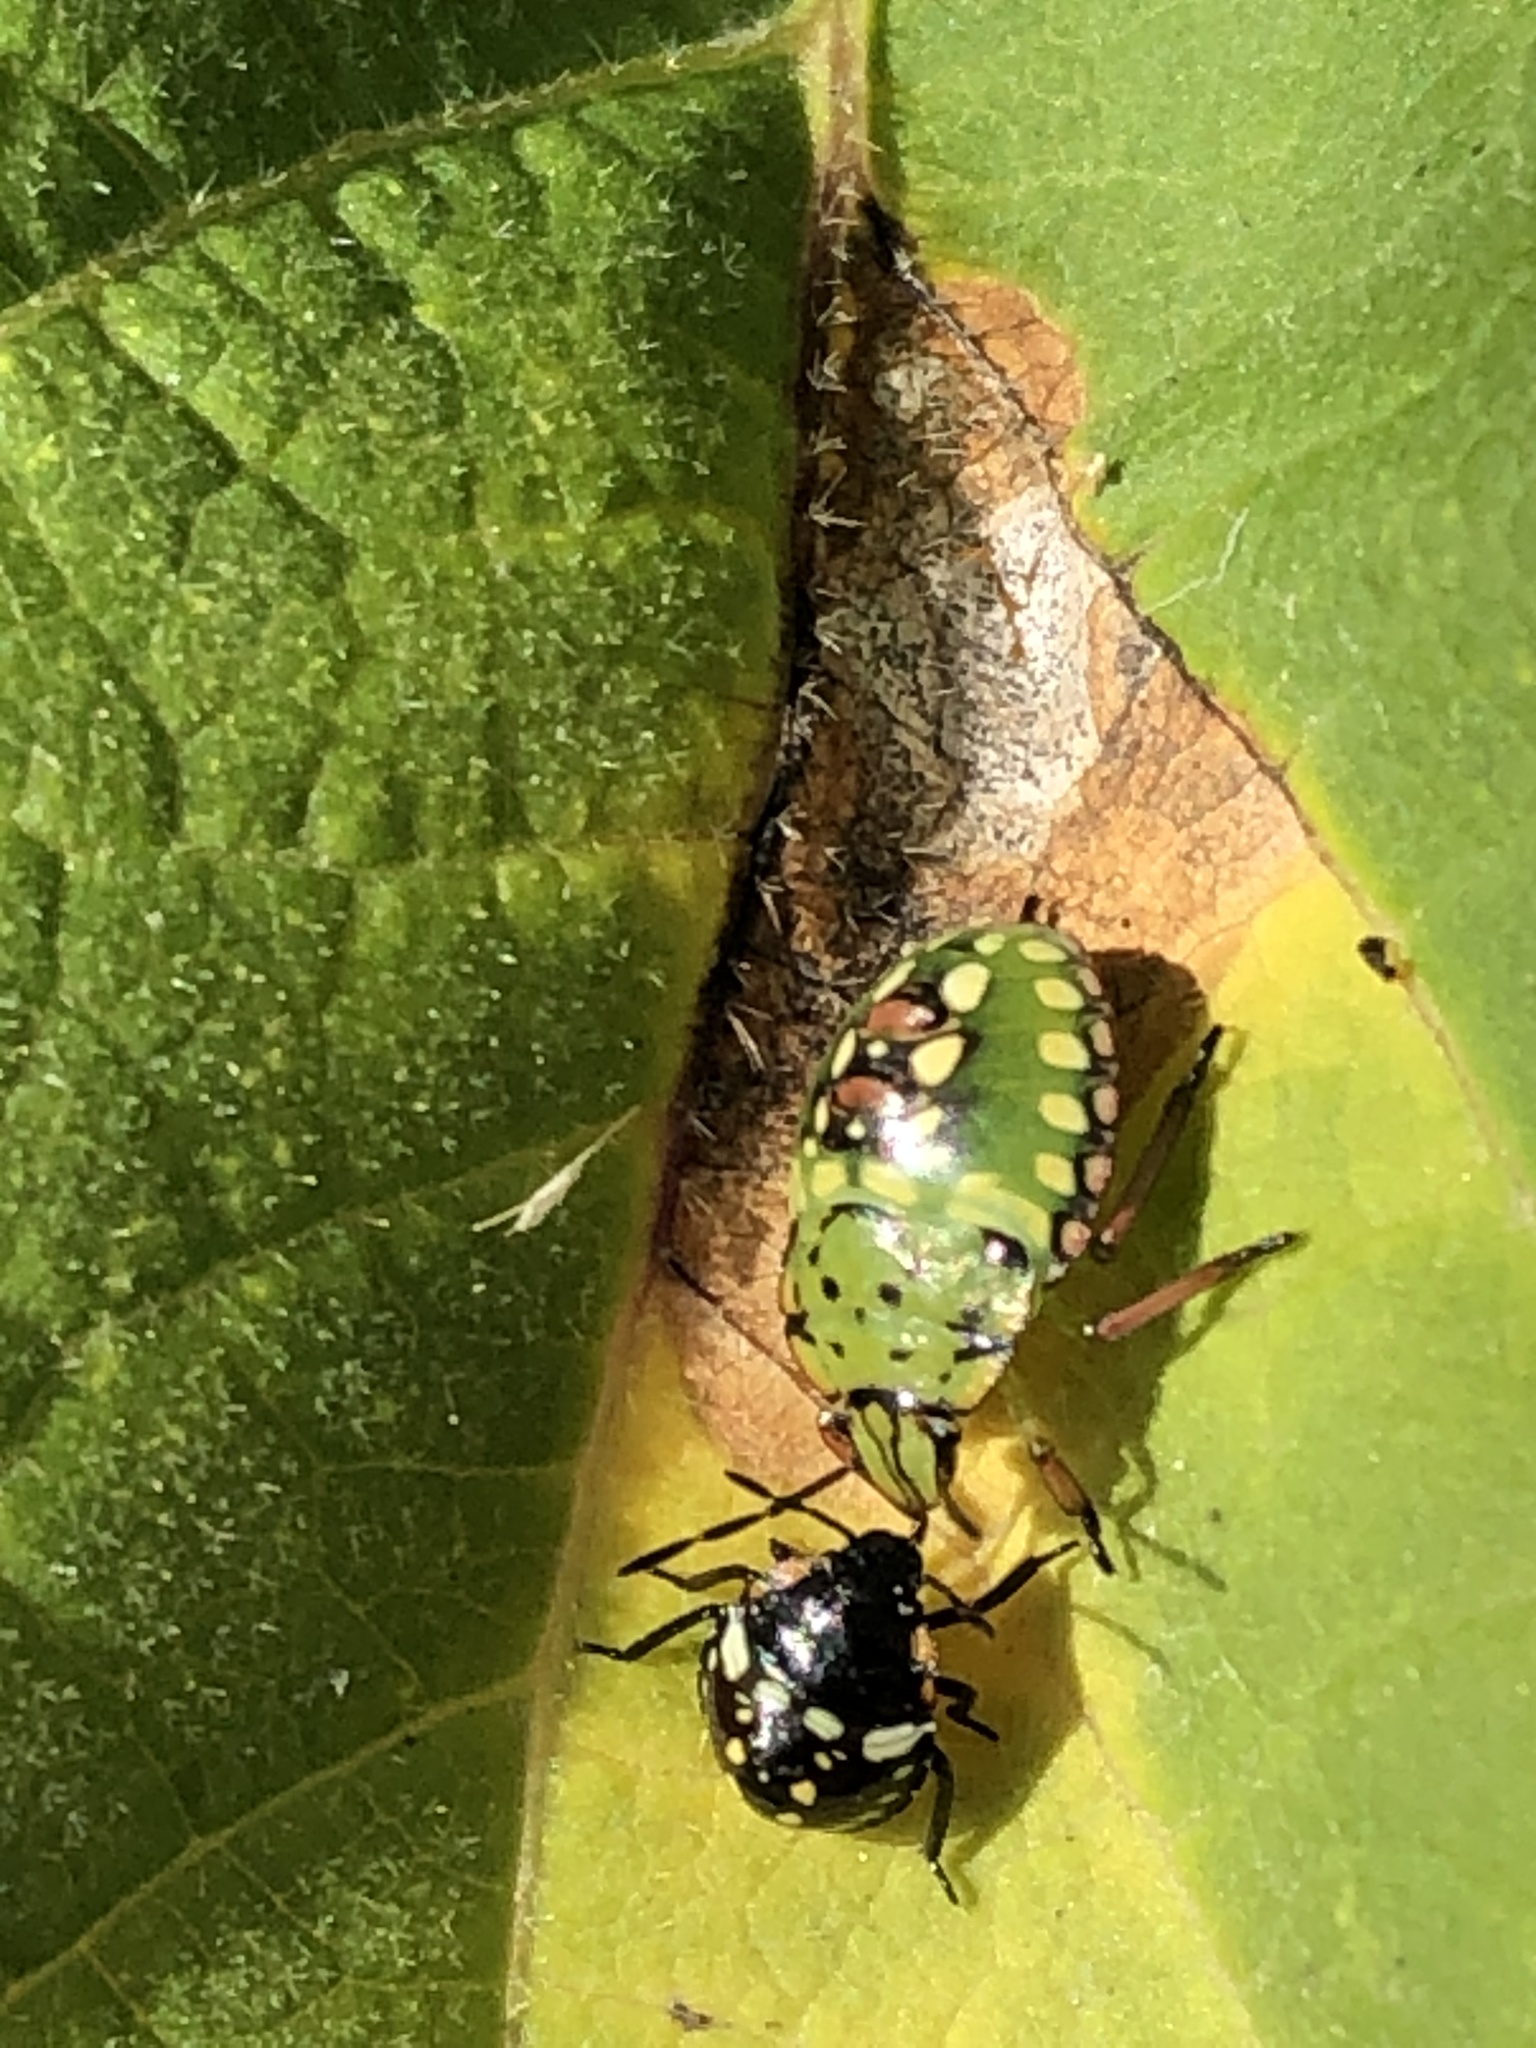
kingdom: Animalia
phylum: Arthropoda
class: Insecta
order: Hemiptera
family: Pentatomidae
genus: Nezara
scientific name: Nezara viridula
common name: Southern green stink bug
